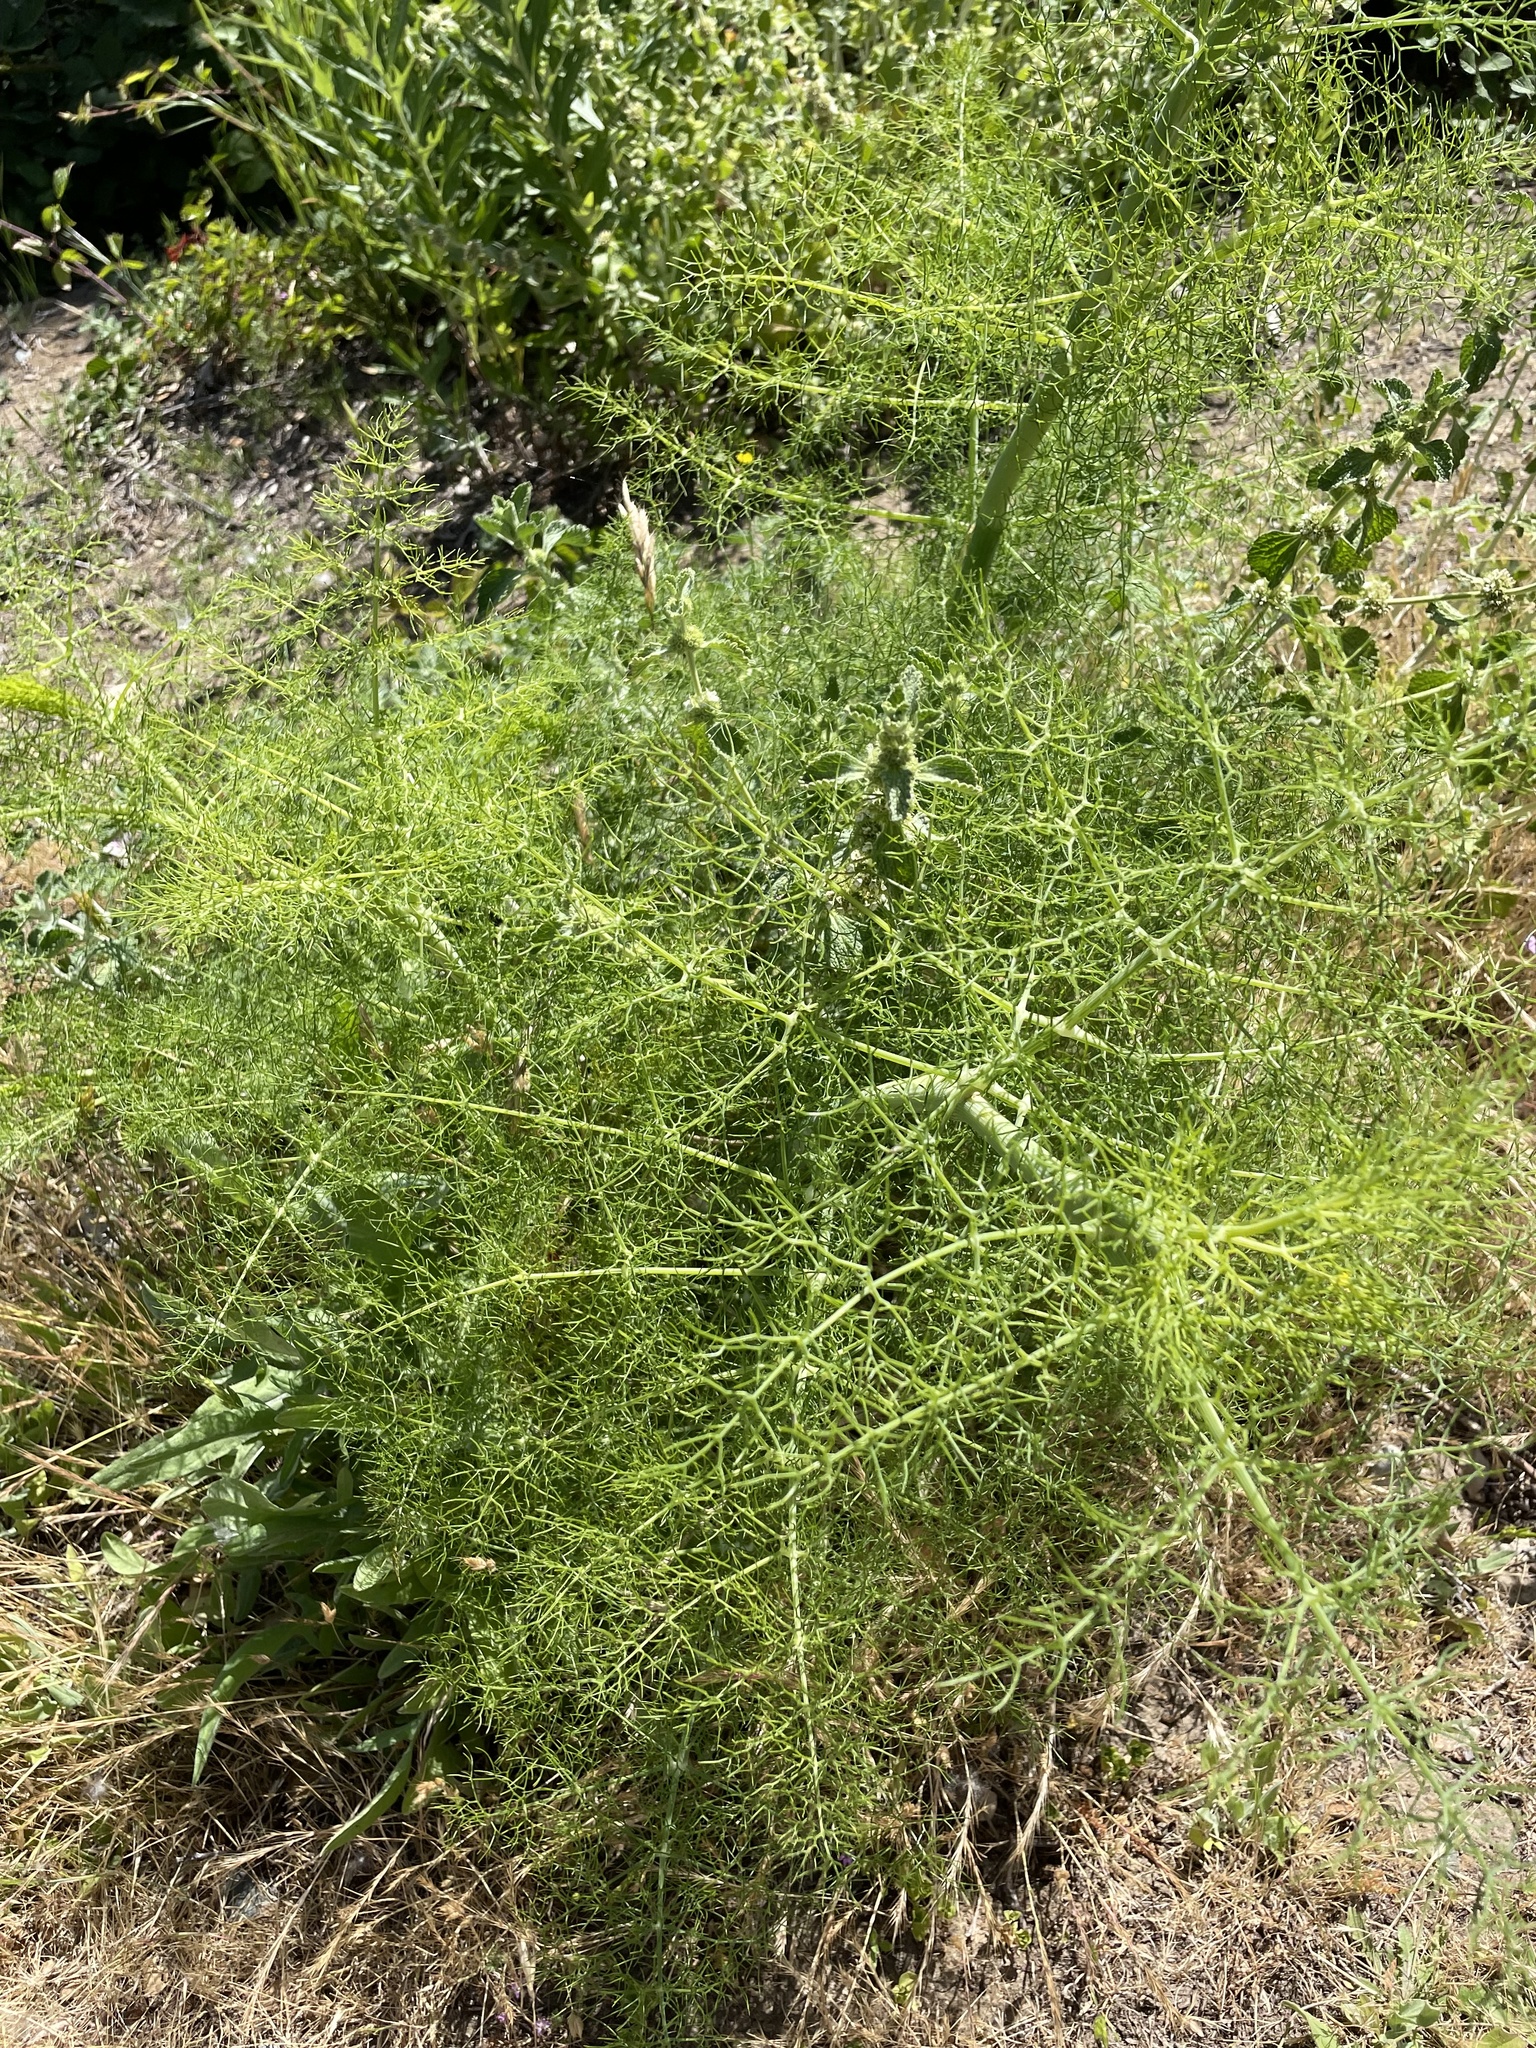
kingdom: Plantae
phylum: Tracheophyta
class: Magnoliopsida
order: Apiales
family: Apiaceae
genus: Foeniculum
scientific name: Foeniculum vulgare
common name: Fennel
